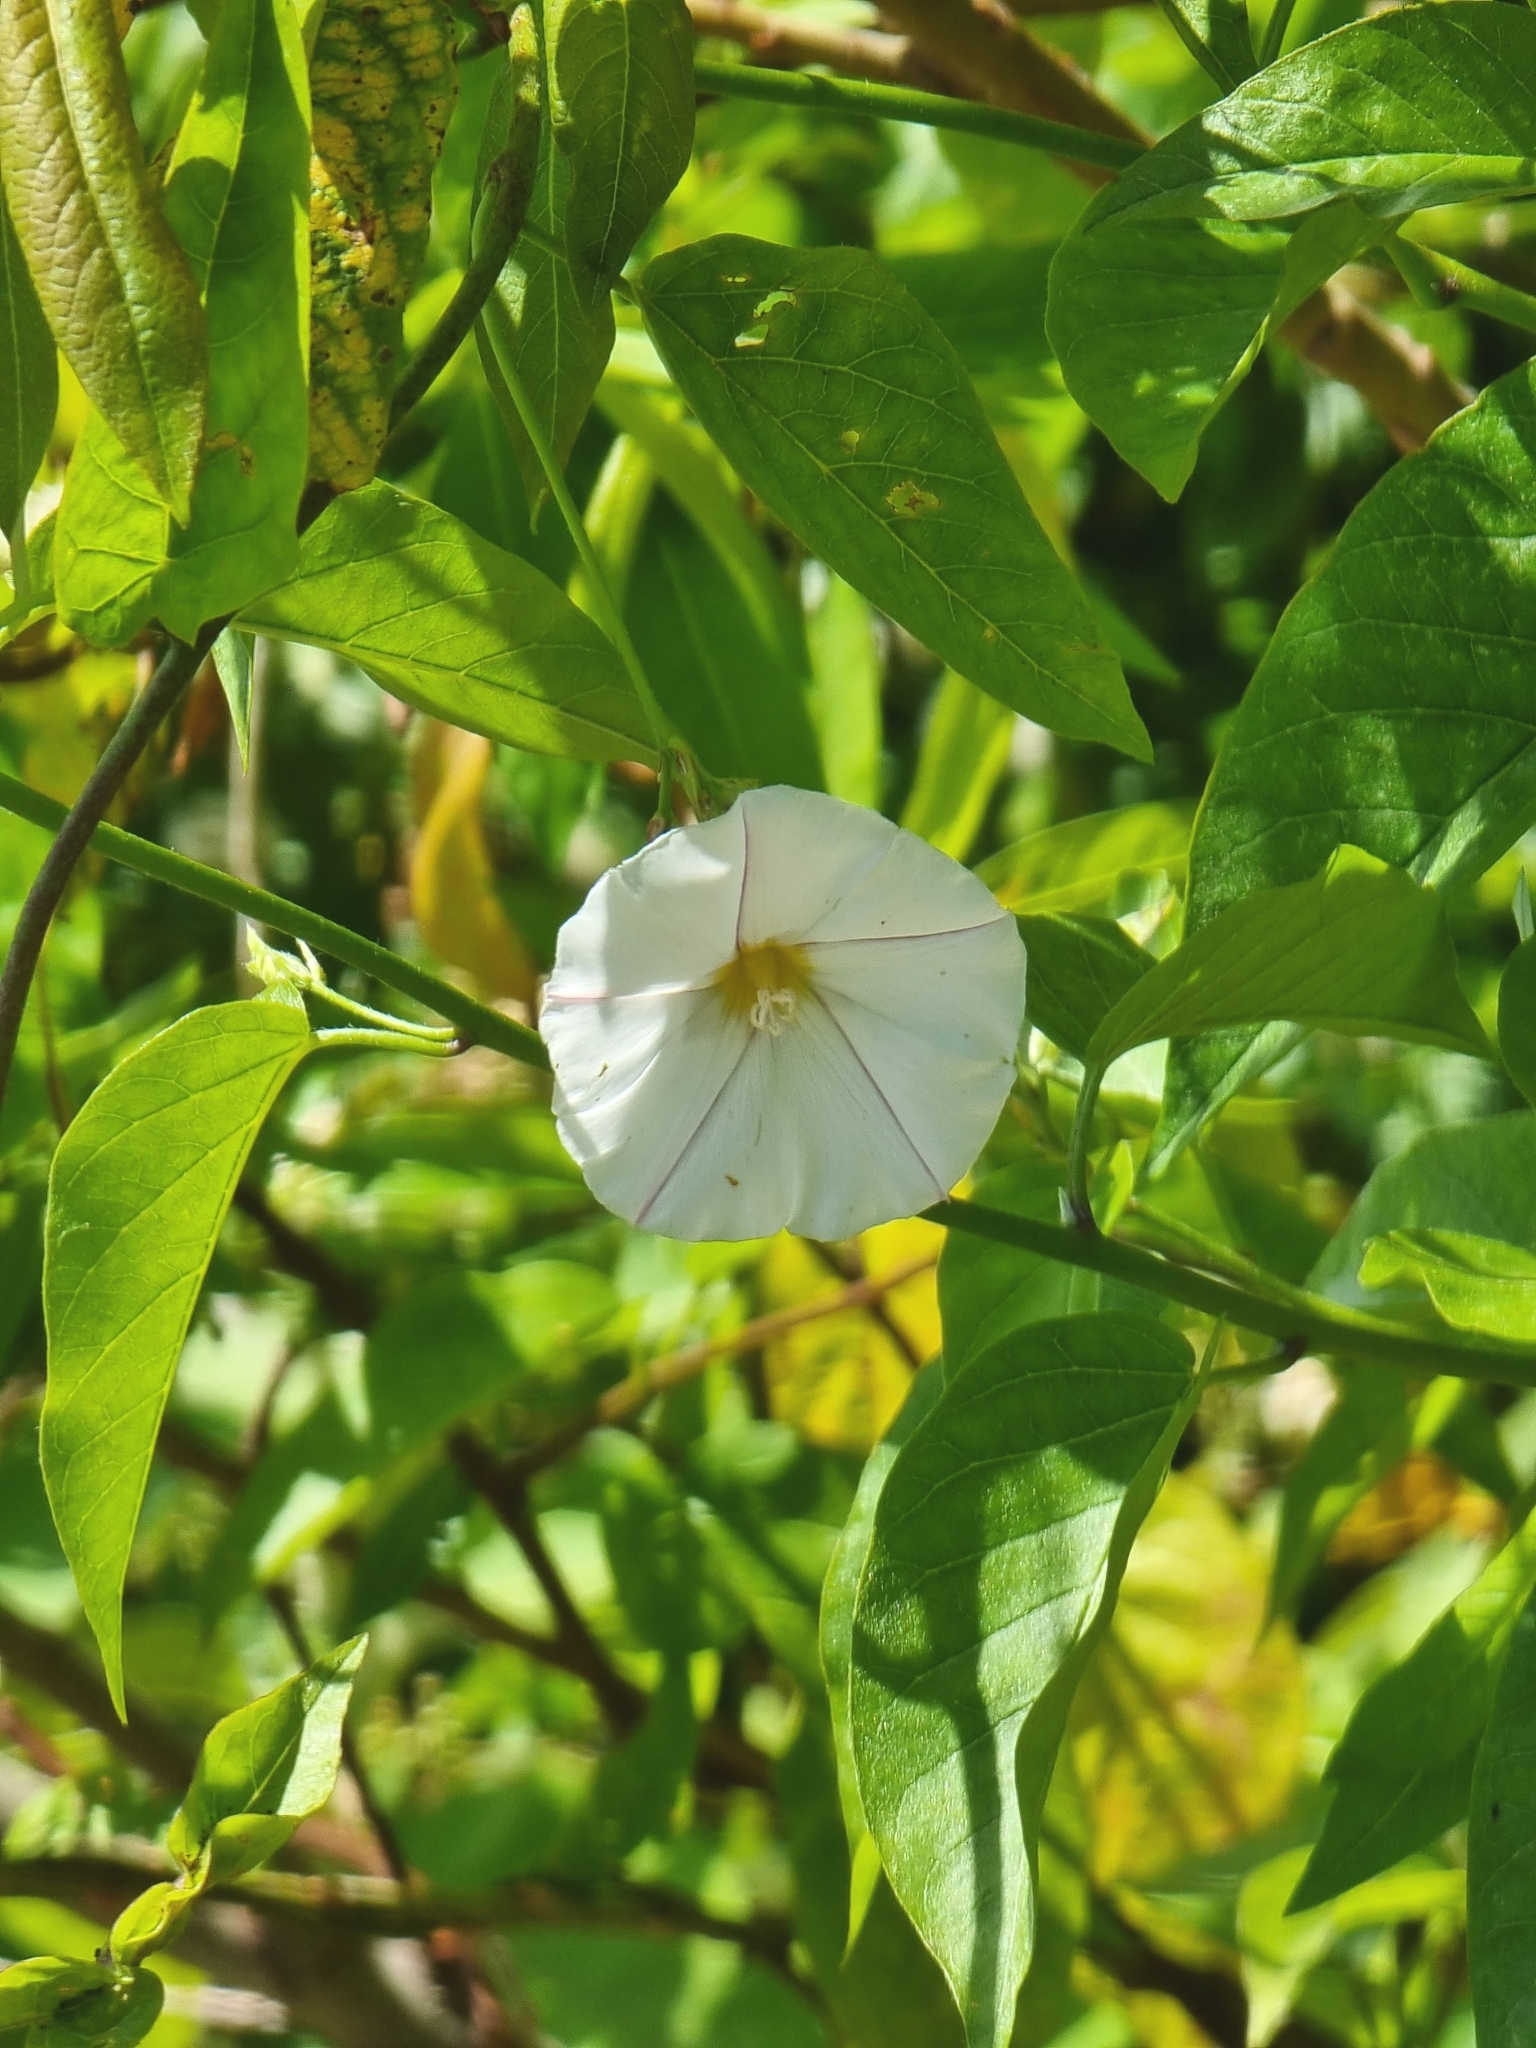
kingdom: Plantae
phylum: Tracheophyta
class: Magnoliopsida
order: Solanales
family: Convolvulaceae
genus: Convolvulus
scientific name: Convolvulus massonii
